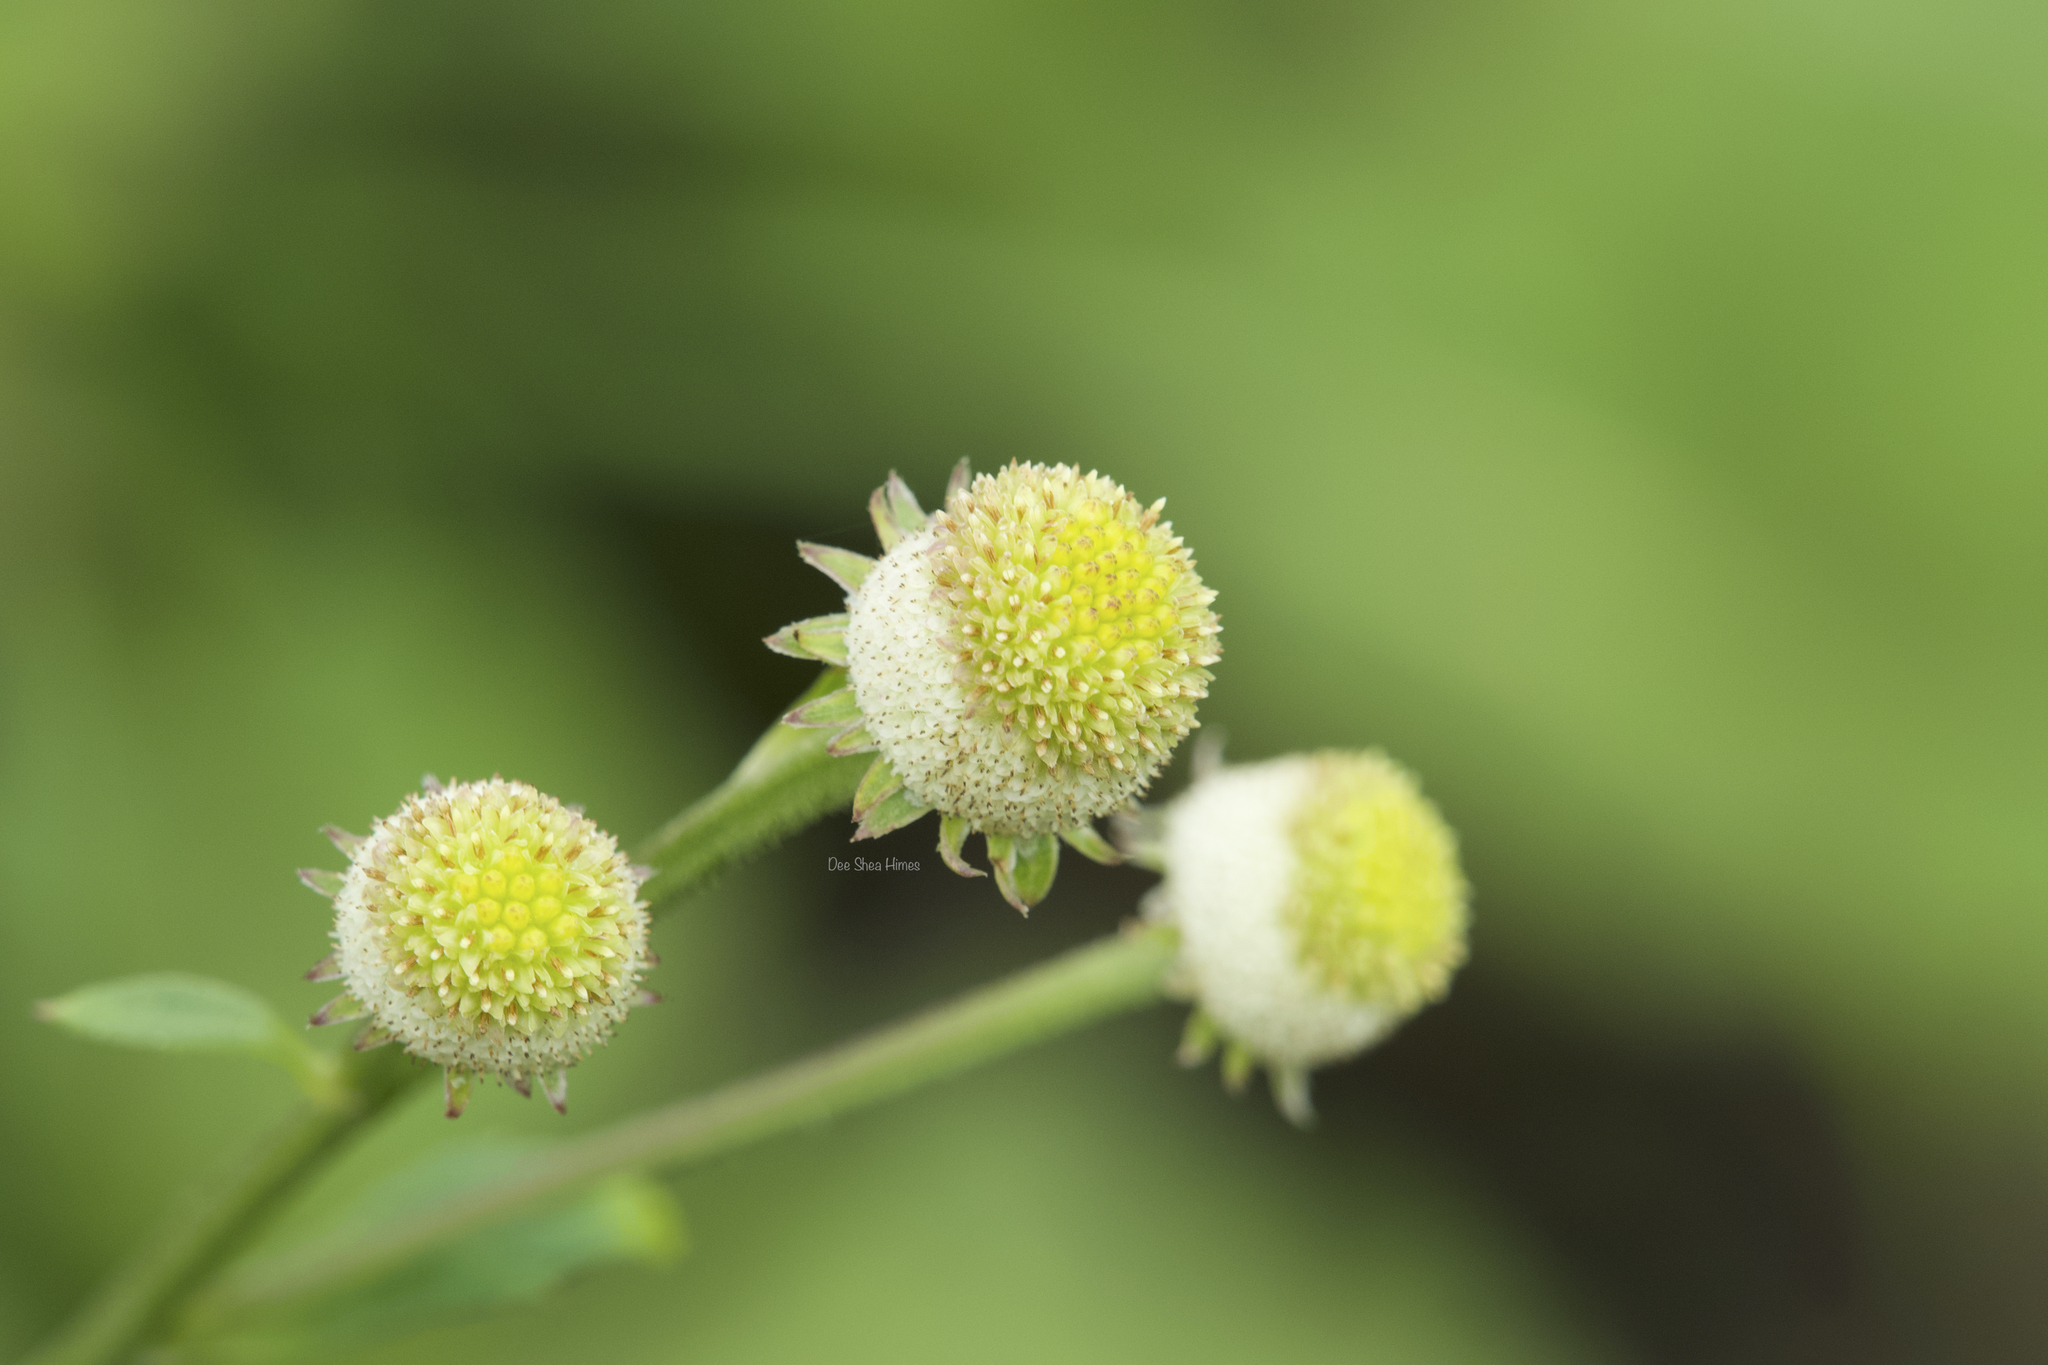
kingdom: Plantae
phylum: Tracheophyta
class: Magnoliopsida
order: Asterales
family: Asteraceae
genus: Myriactis
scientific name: Myriactis nepalensis
